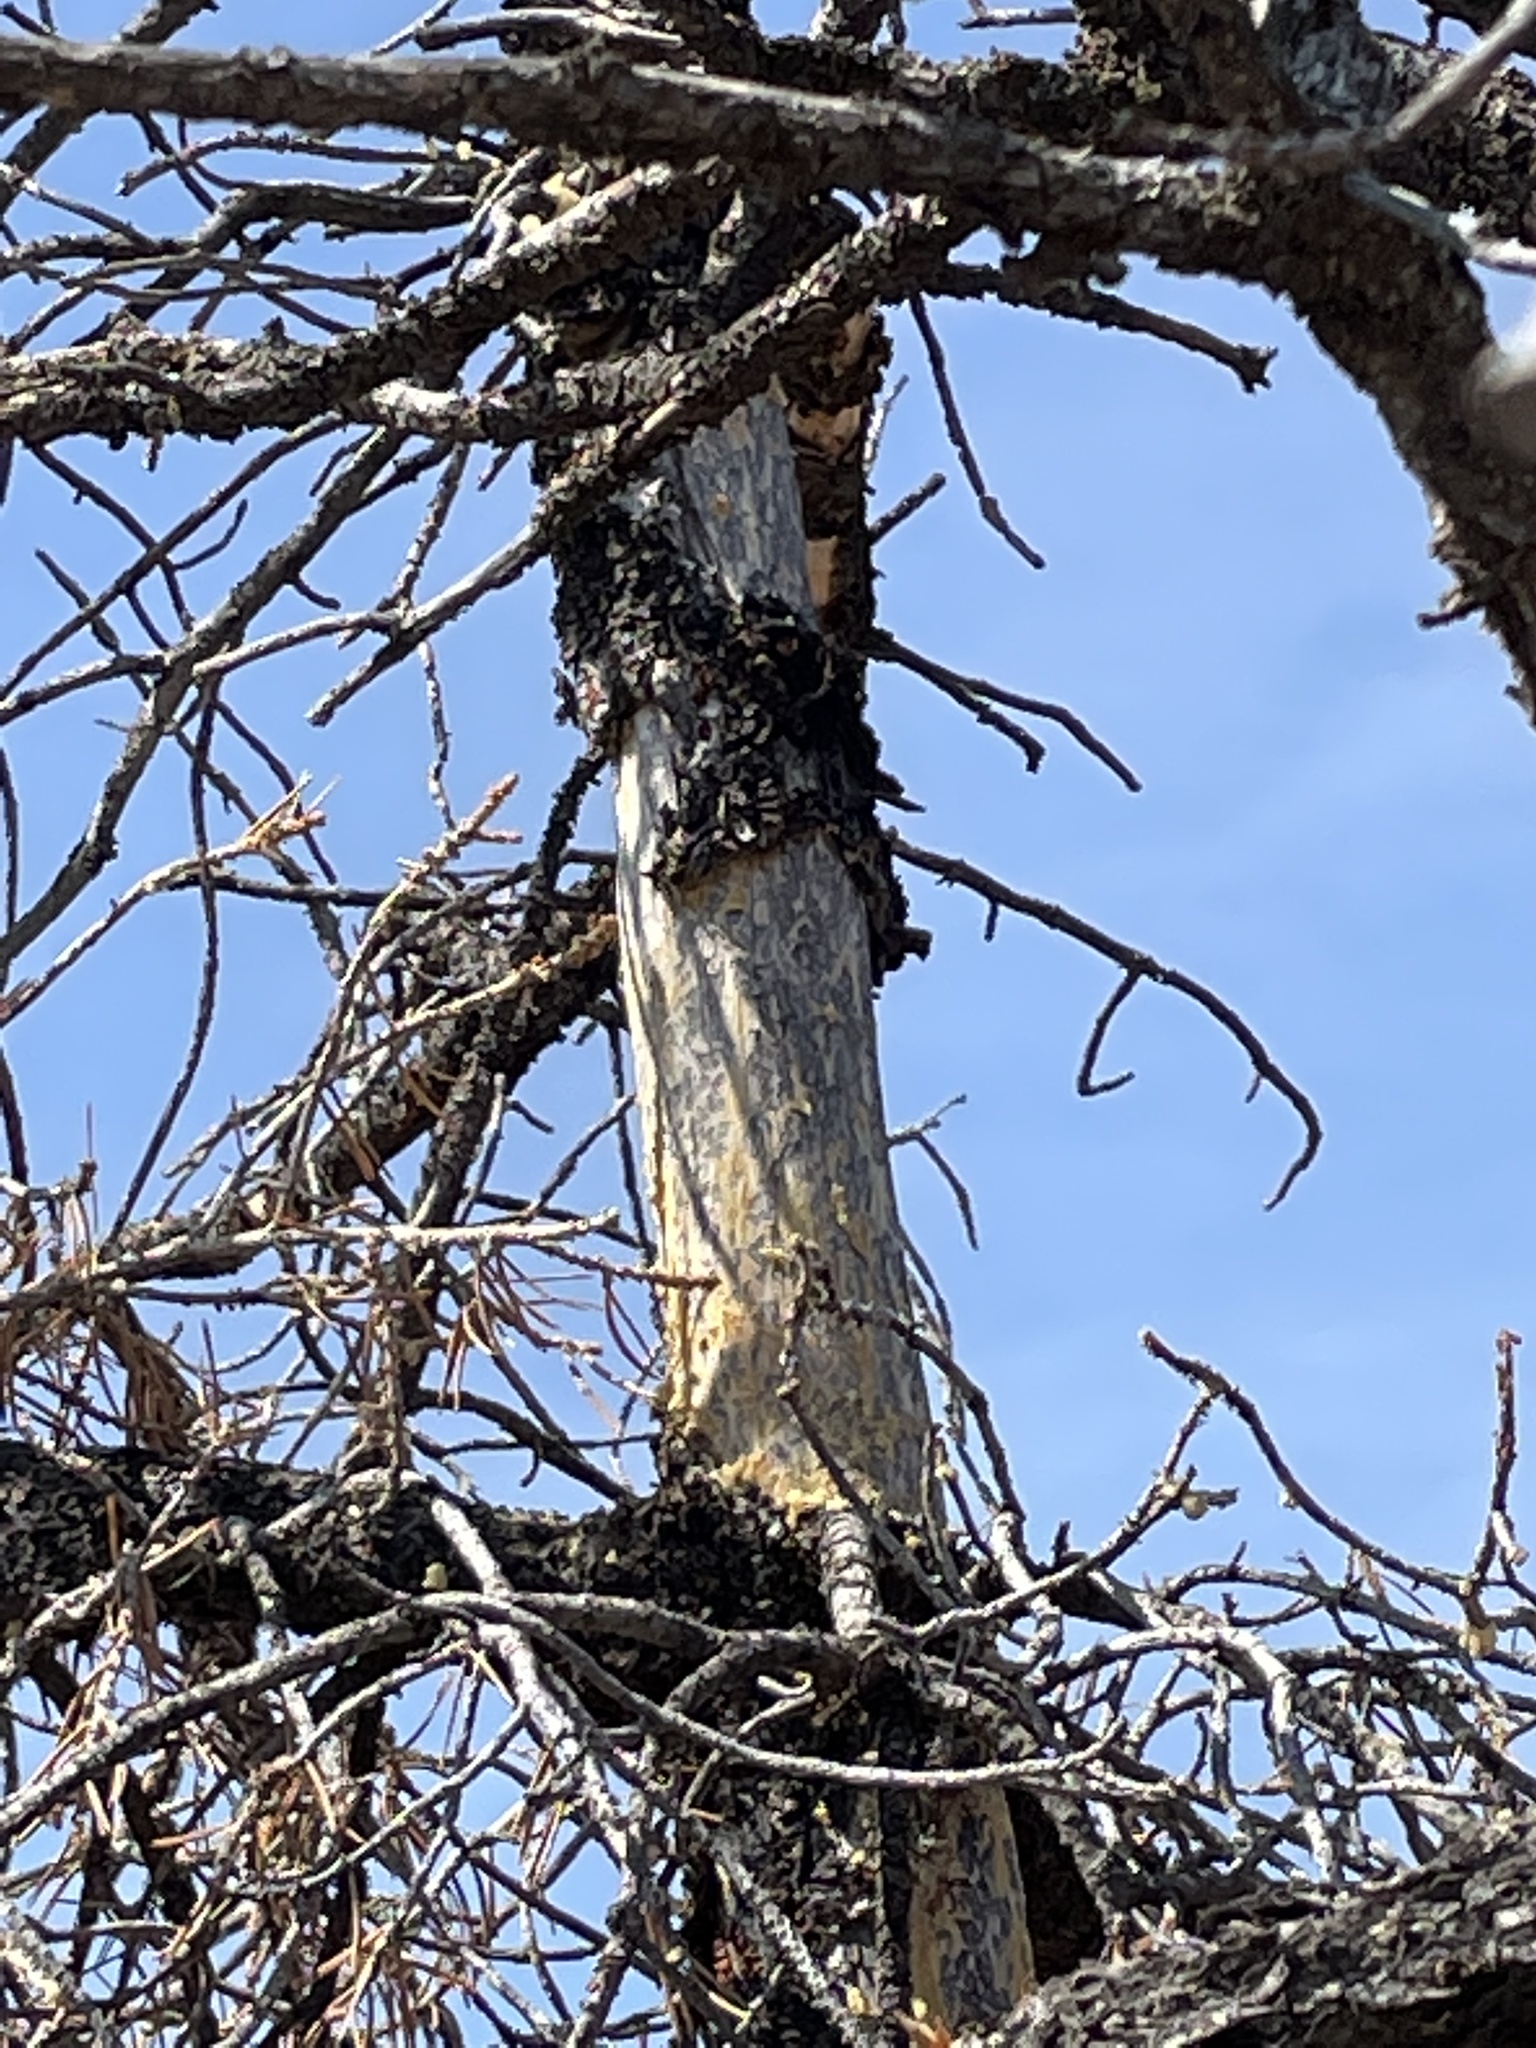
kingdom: Animalia
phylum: Chordata
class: Mammalia
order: Rodentia
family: Erethizontidae
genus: Erethizon
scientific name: Erethizon dorsatus
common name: North american porcupine
